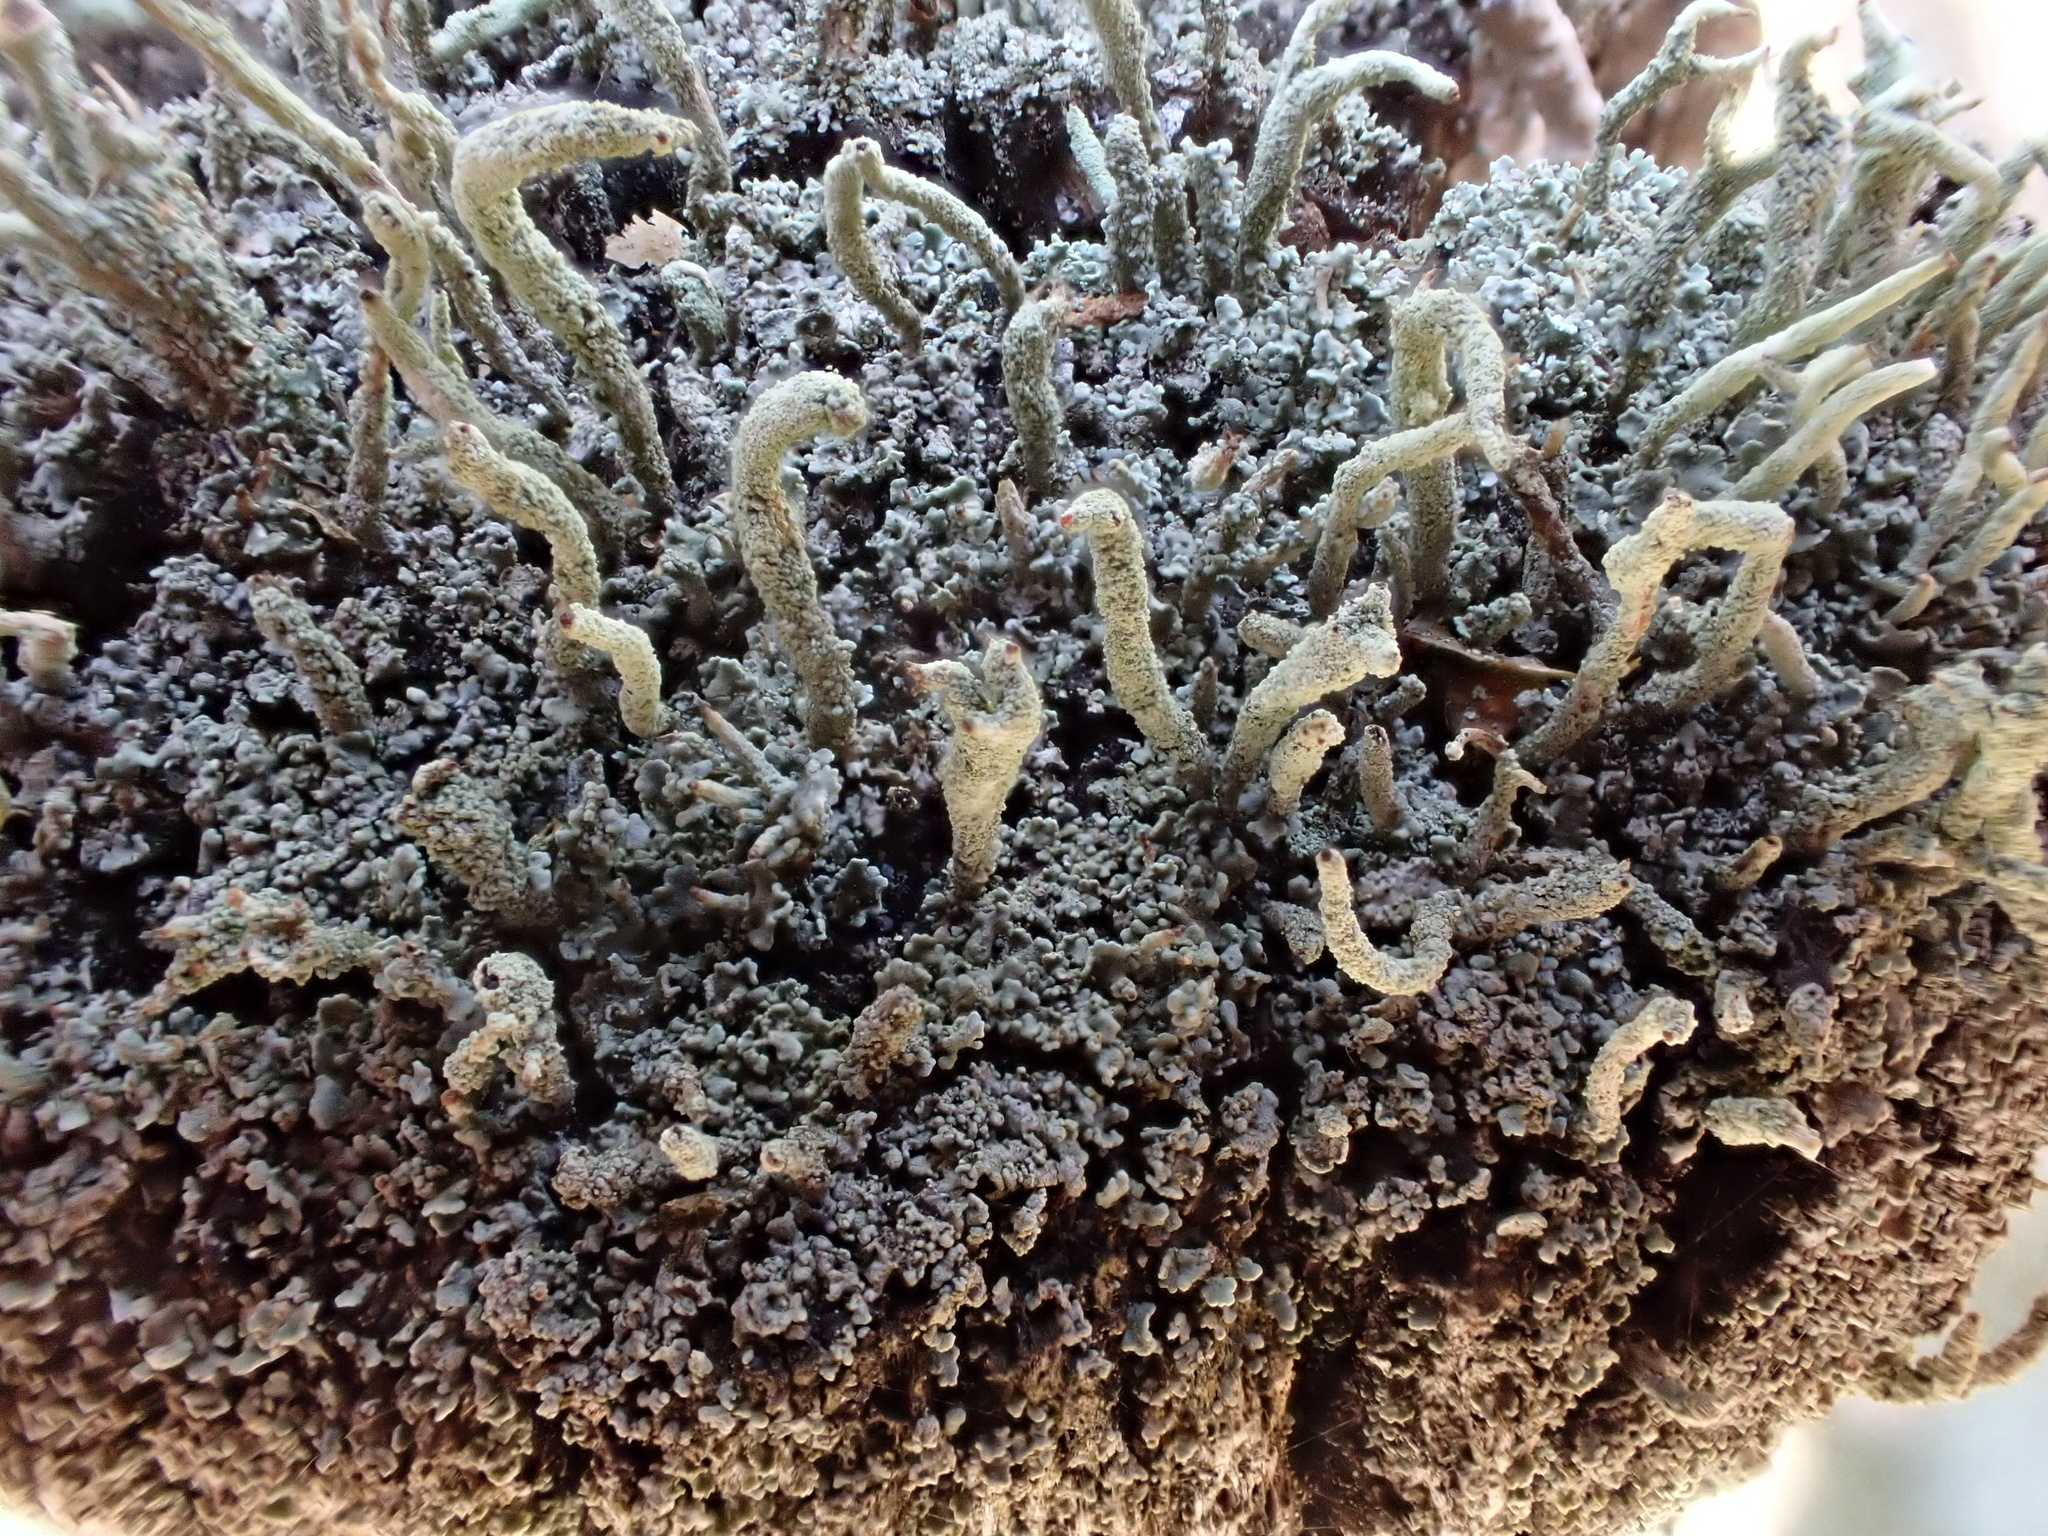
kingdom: Fungi
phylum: Ascomycota
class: Lecanoromycetes
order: Lecanorales
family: Cladoniaceae
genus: Cladonia
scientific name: Cladonia macilenta
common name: Lipstick powderhorn
